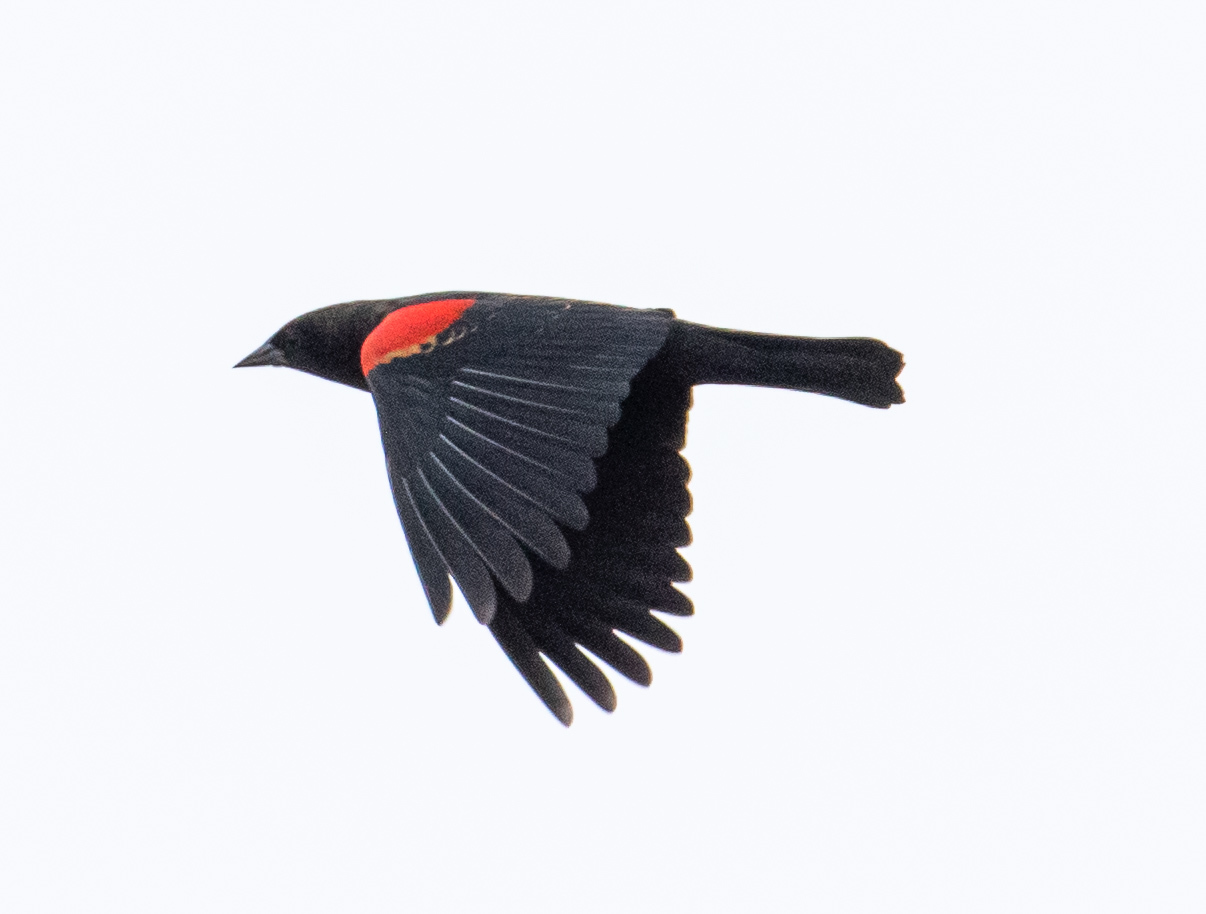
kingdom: Animalia
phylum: Chordata
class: Aves
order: Passeriformes
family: Icteridae
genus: Agelaius
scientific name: Agelaius phoeniceus
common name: Red-winged blackbird
